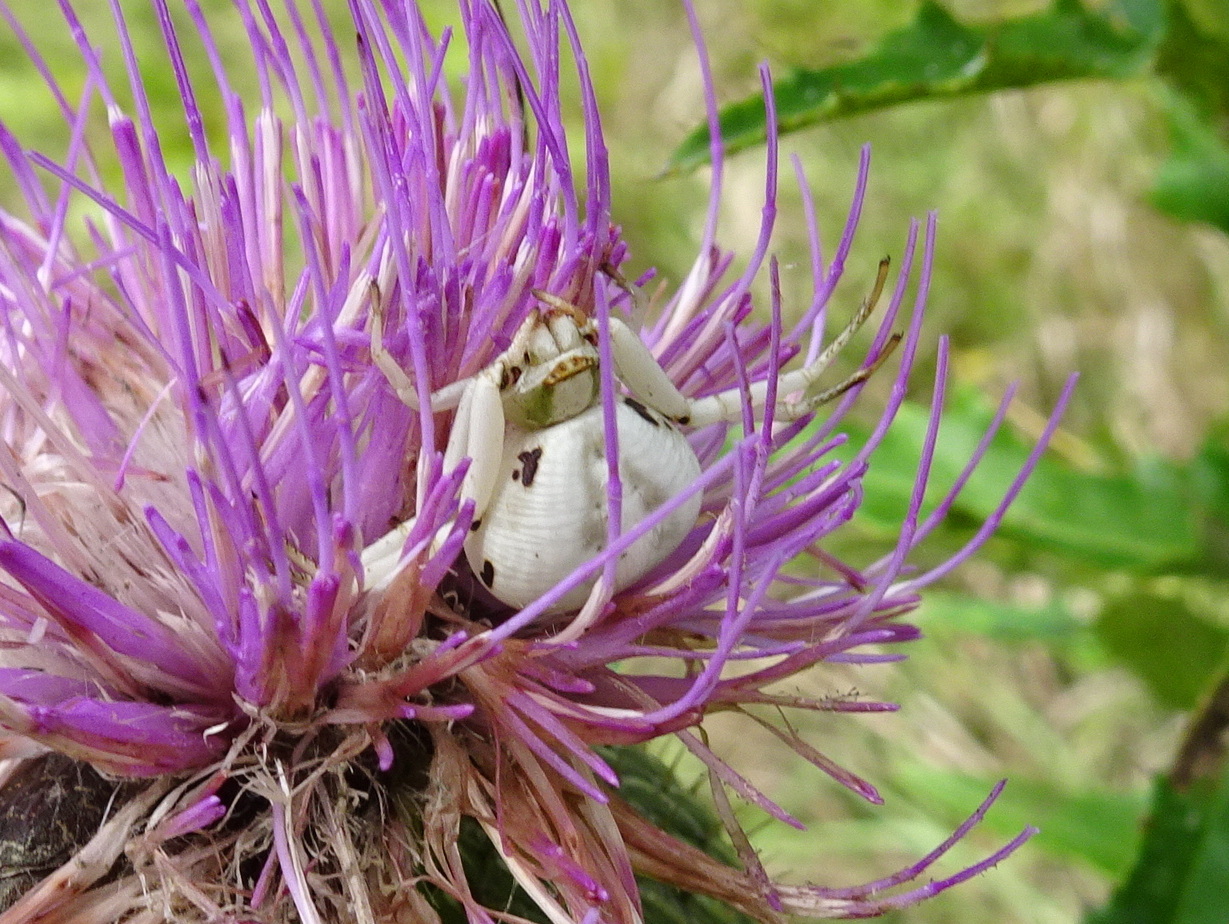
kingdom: Animalia
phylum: Arthropoda
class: Arachnida
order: Araneae
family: Thomisidae
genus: Misumenoides
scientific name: Misumenoides formosipes
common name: White-banded crab spider
